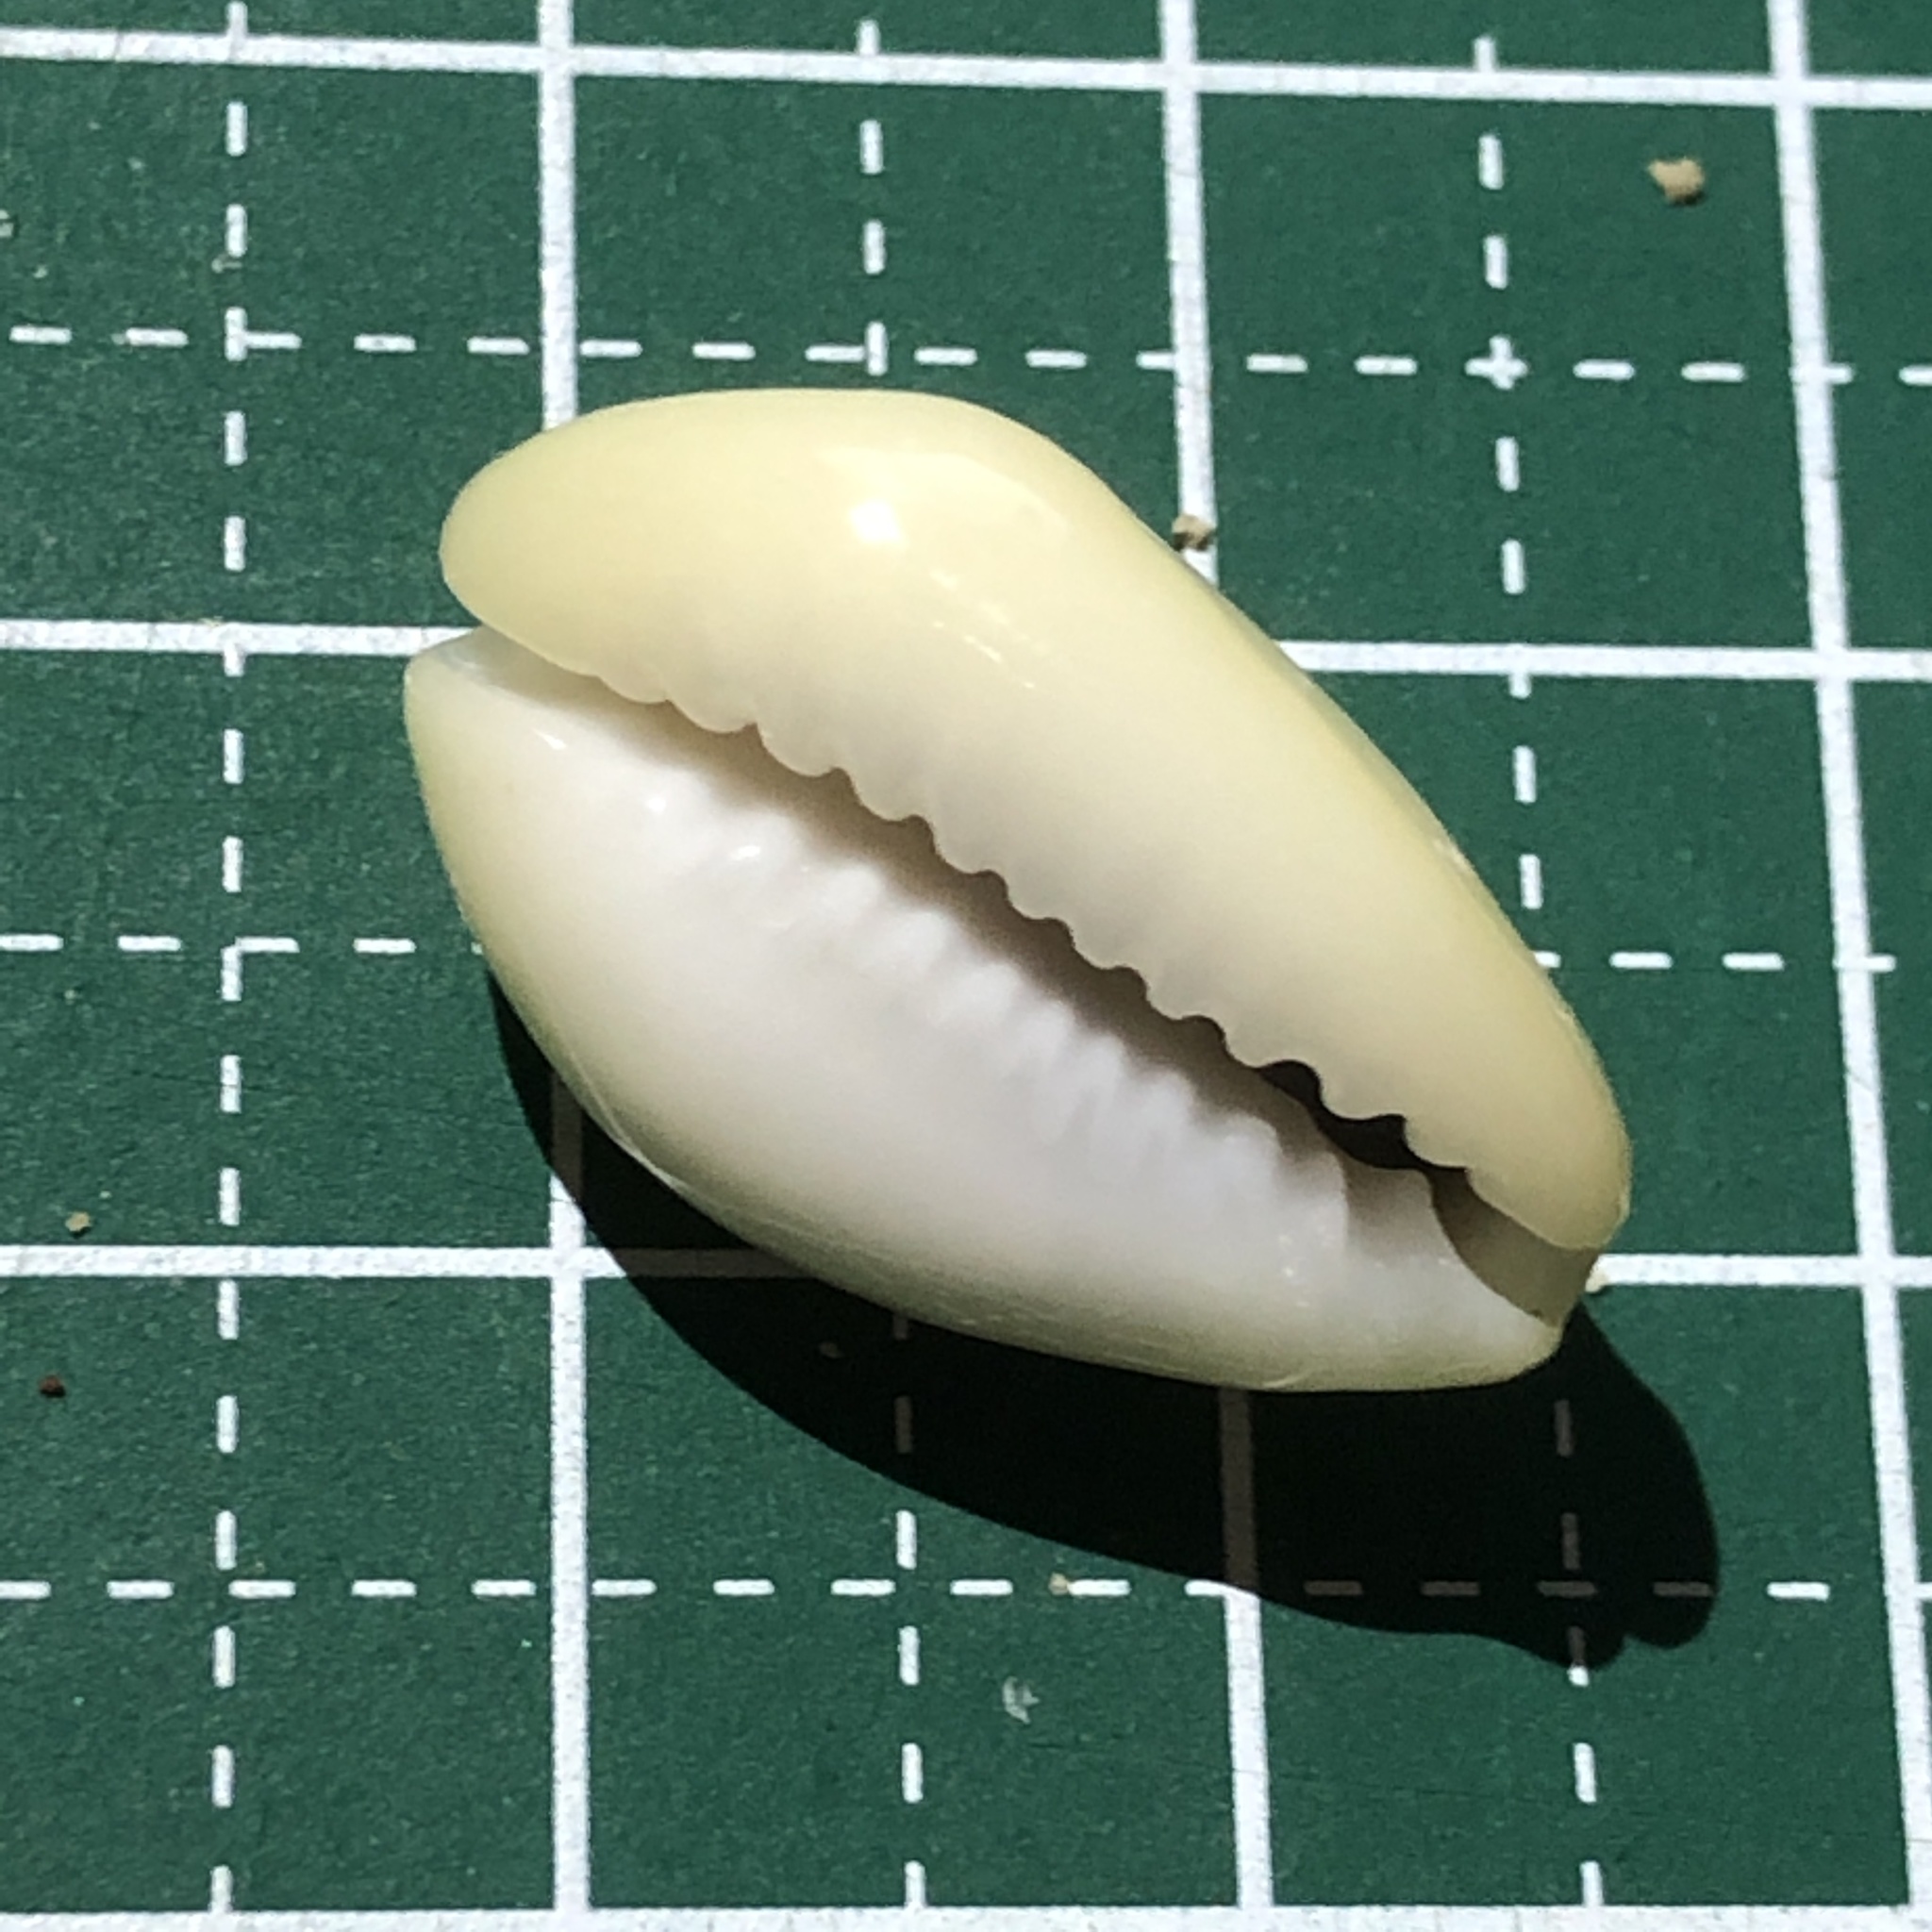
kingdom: Animalia
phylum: Mollusca
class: Gastropoda
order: Littorinimorpha
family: Cypraeidae
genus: Monetaria
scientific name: Monetaria moneta
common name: Money cowrie
